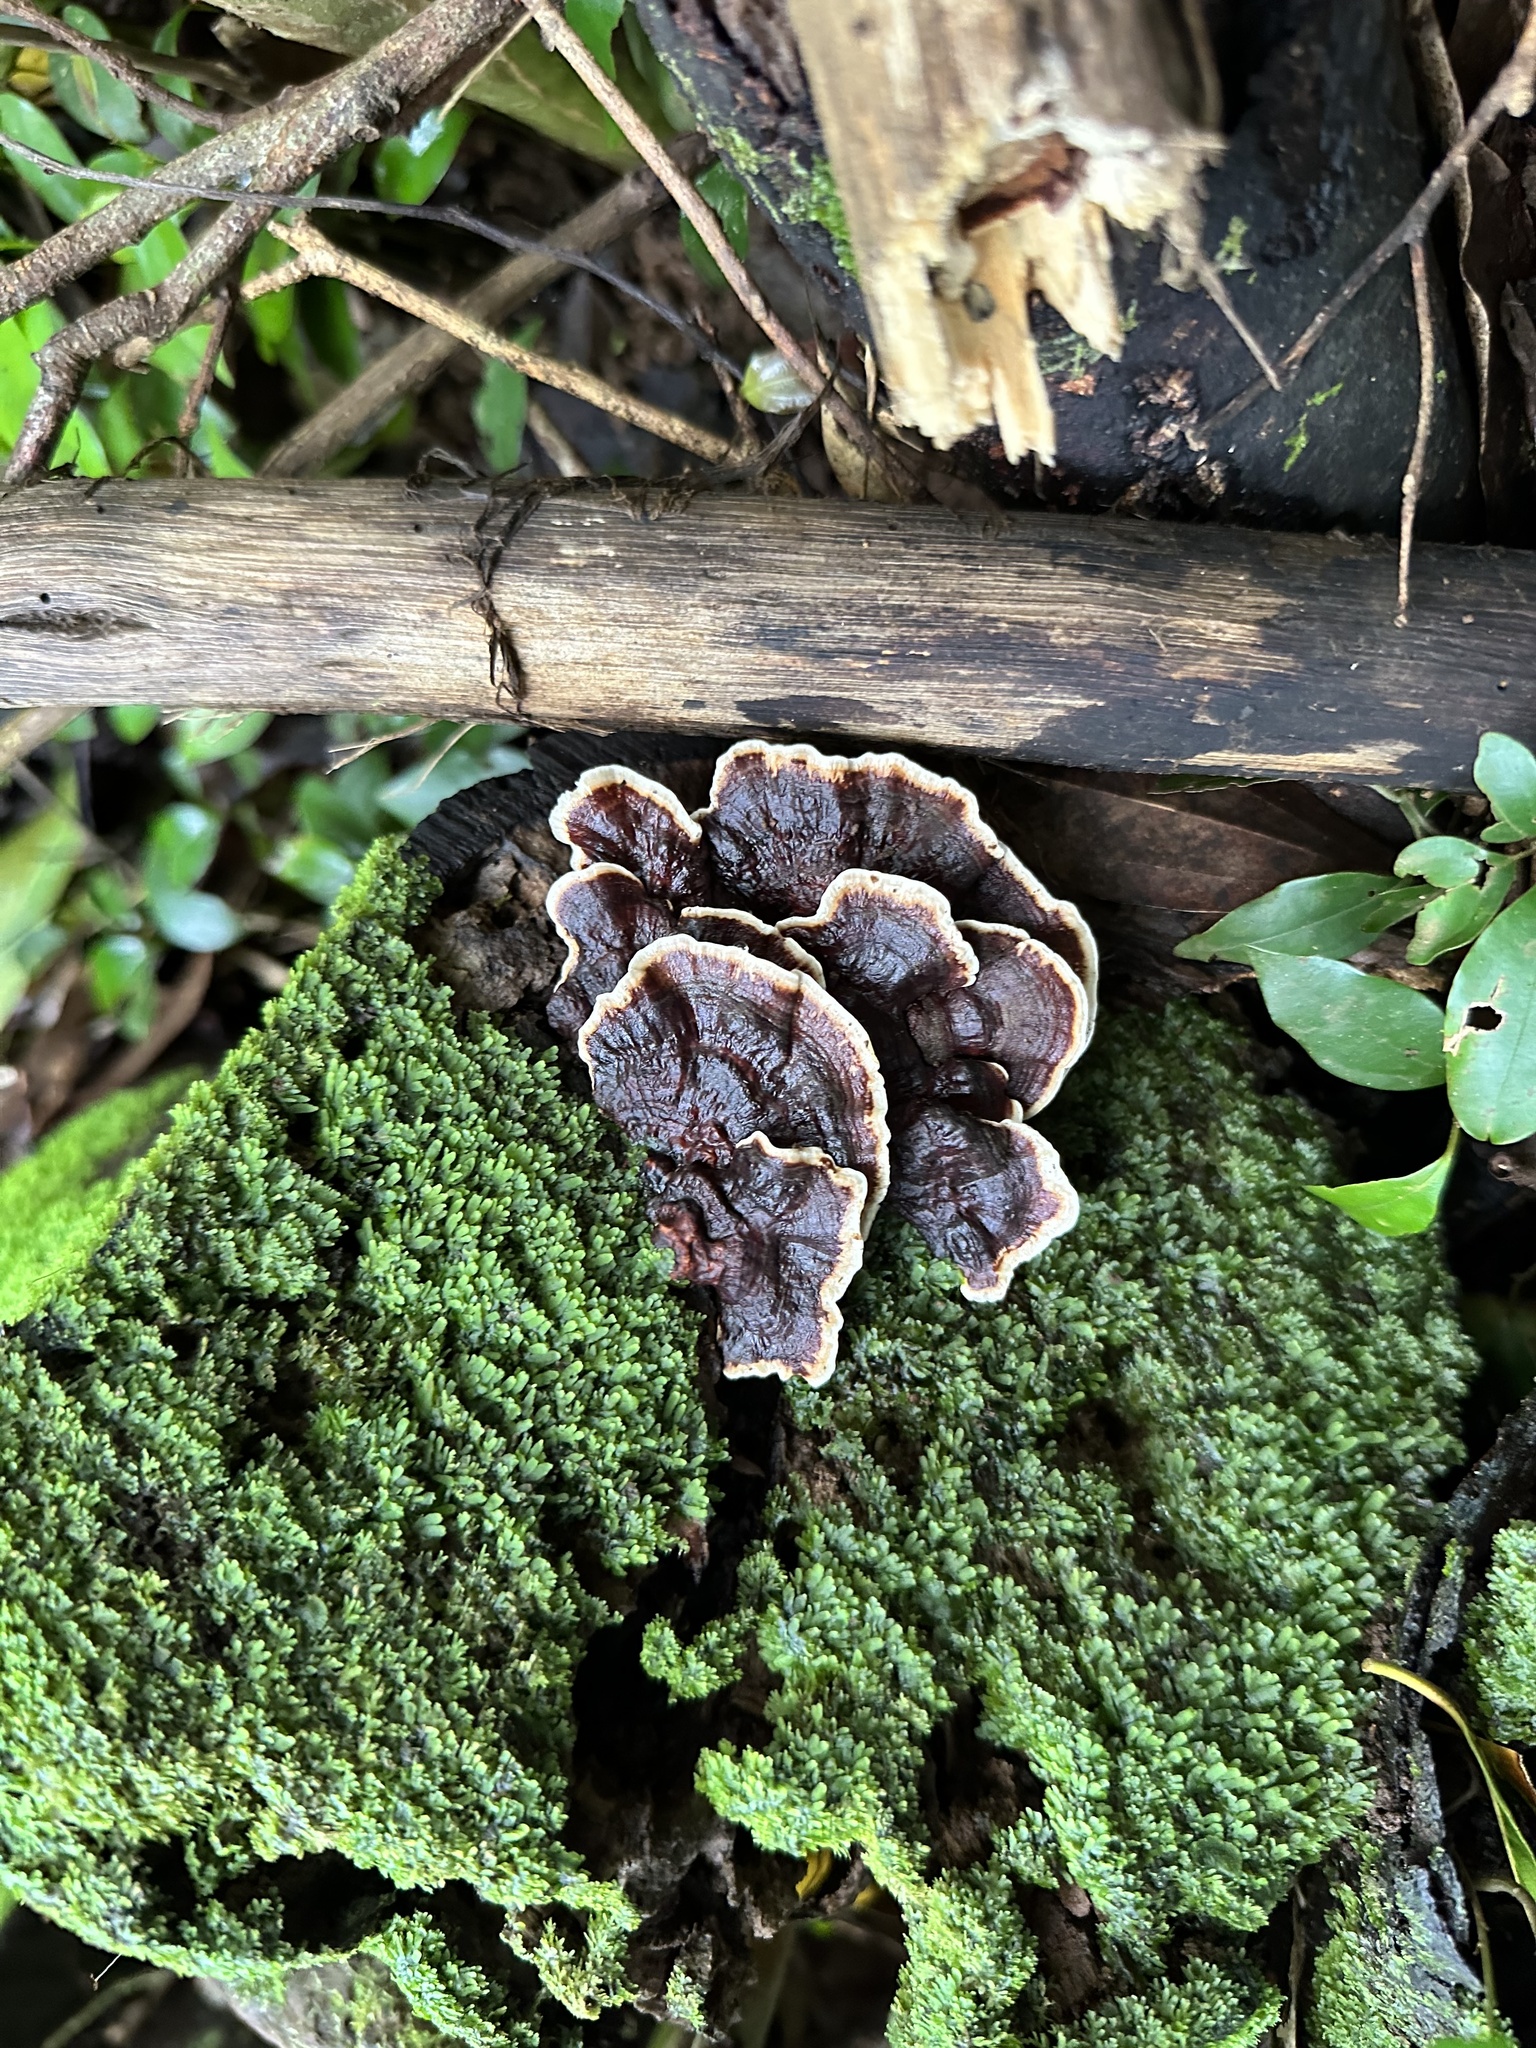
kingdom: Fungi
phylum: Basidiomycota
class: Agaricomycetes
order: Polyporales
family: Polyporaceae
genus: Earliella
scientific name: Earliella scabrosa
